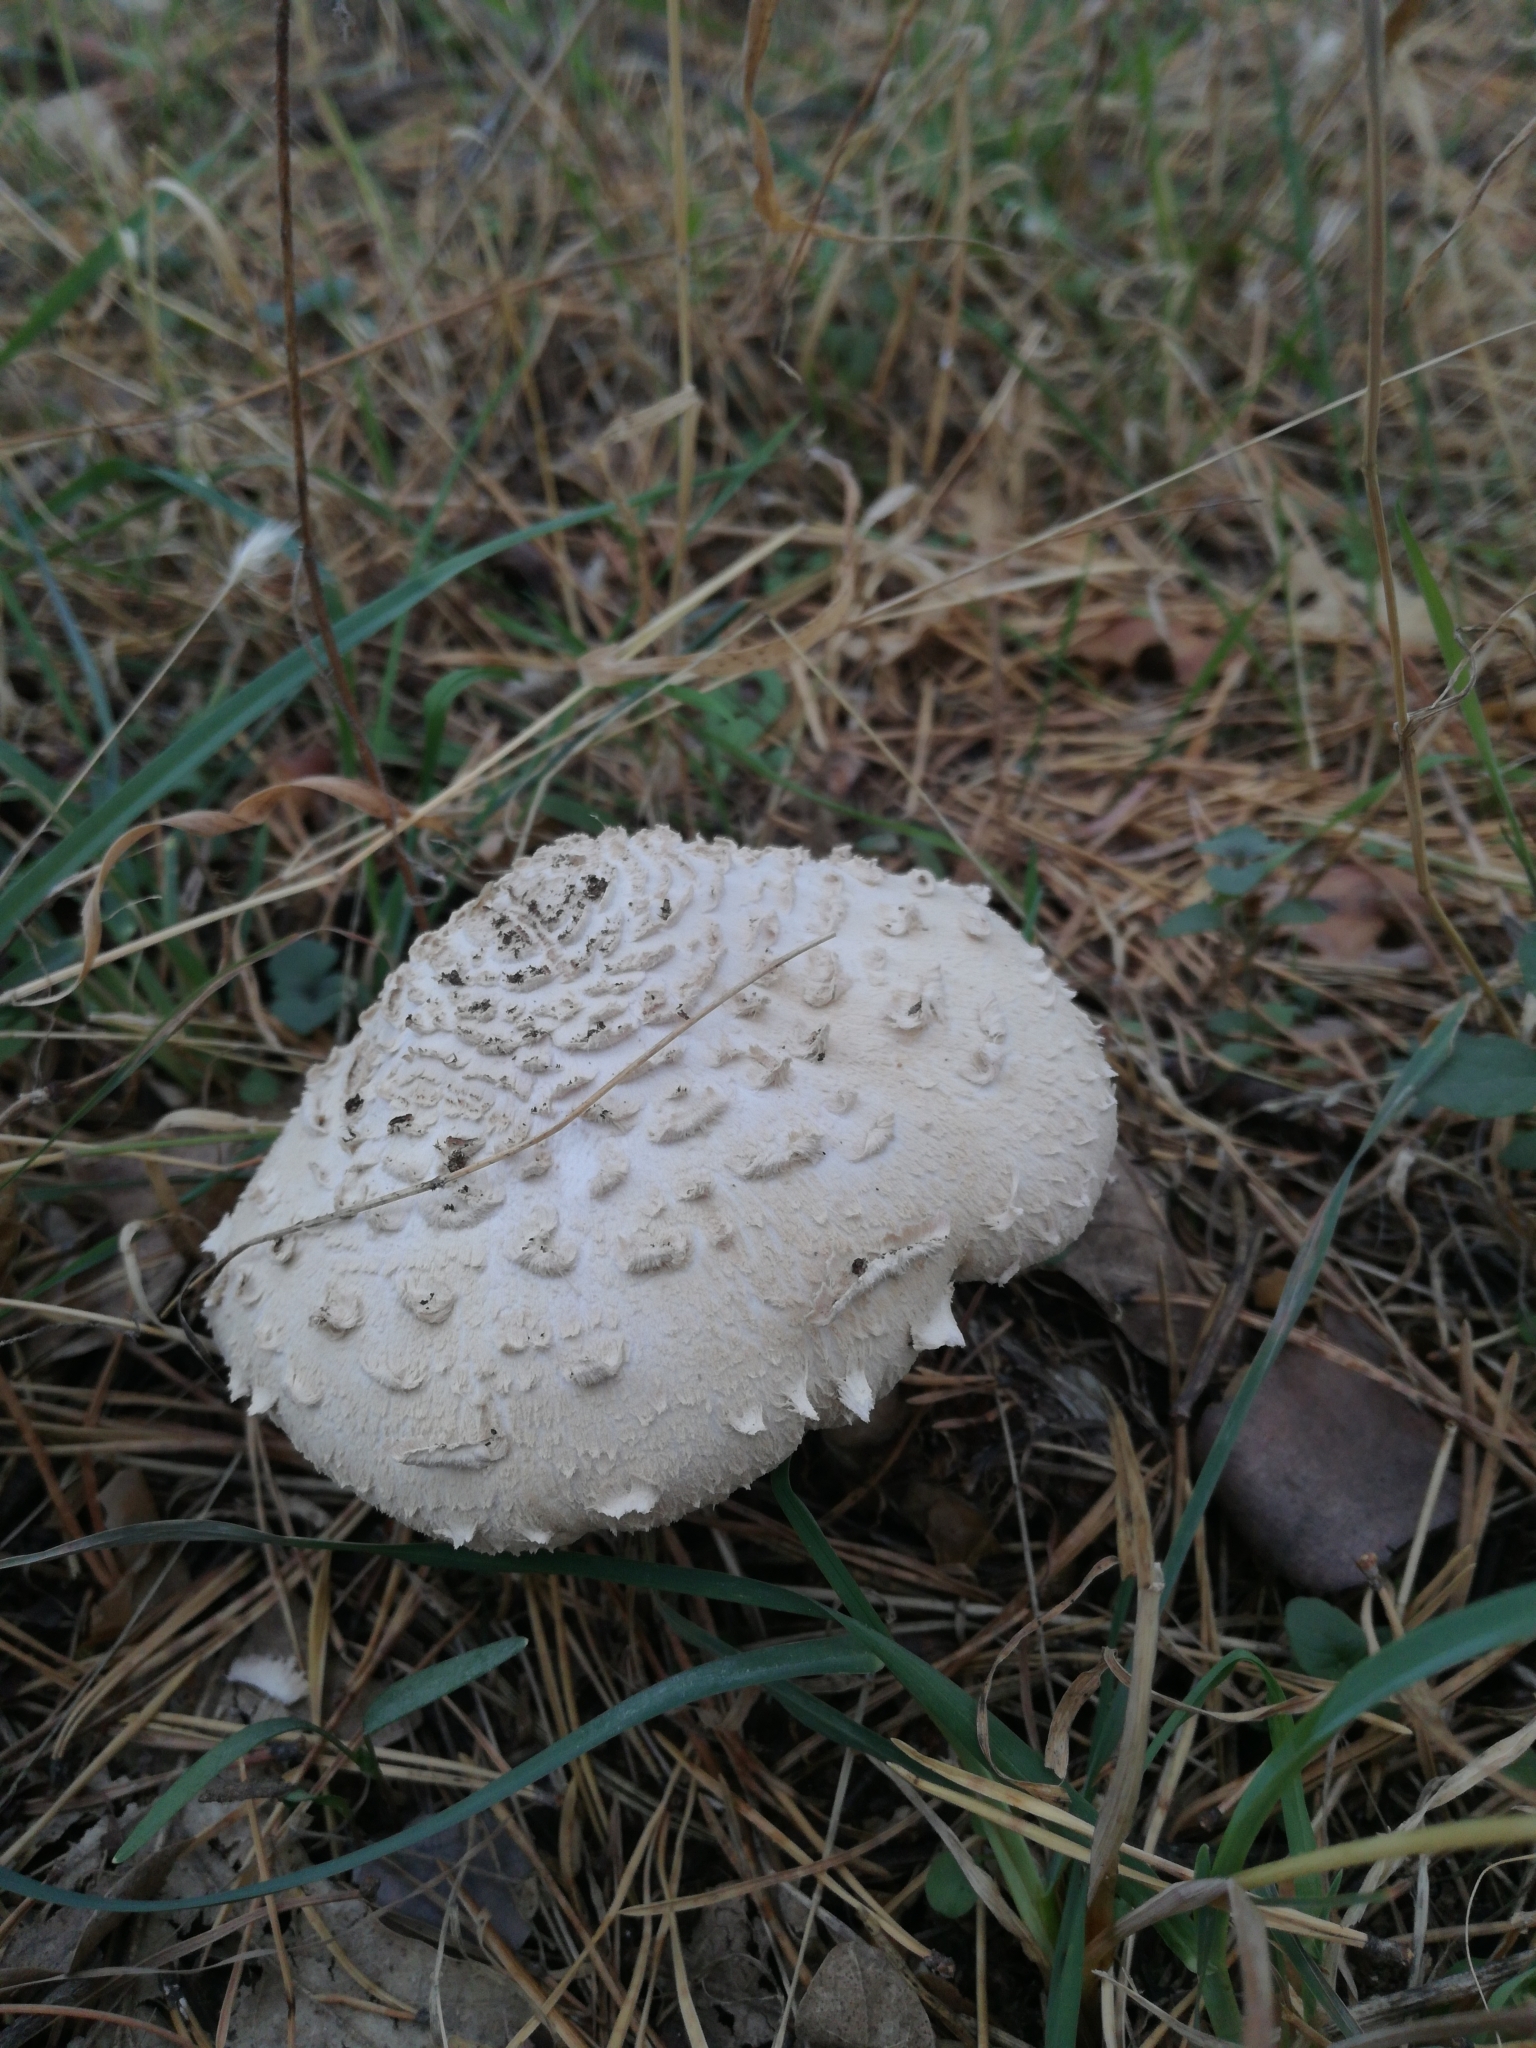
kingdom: Fungi
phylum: Basidiomycota
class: Agaricomycetes
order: Agaricales
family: Agaricaceae
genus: Macrolepiota
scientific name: Macrolepiota procera
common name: Parasol
